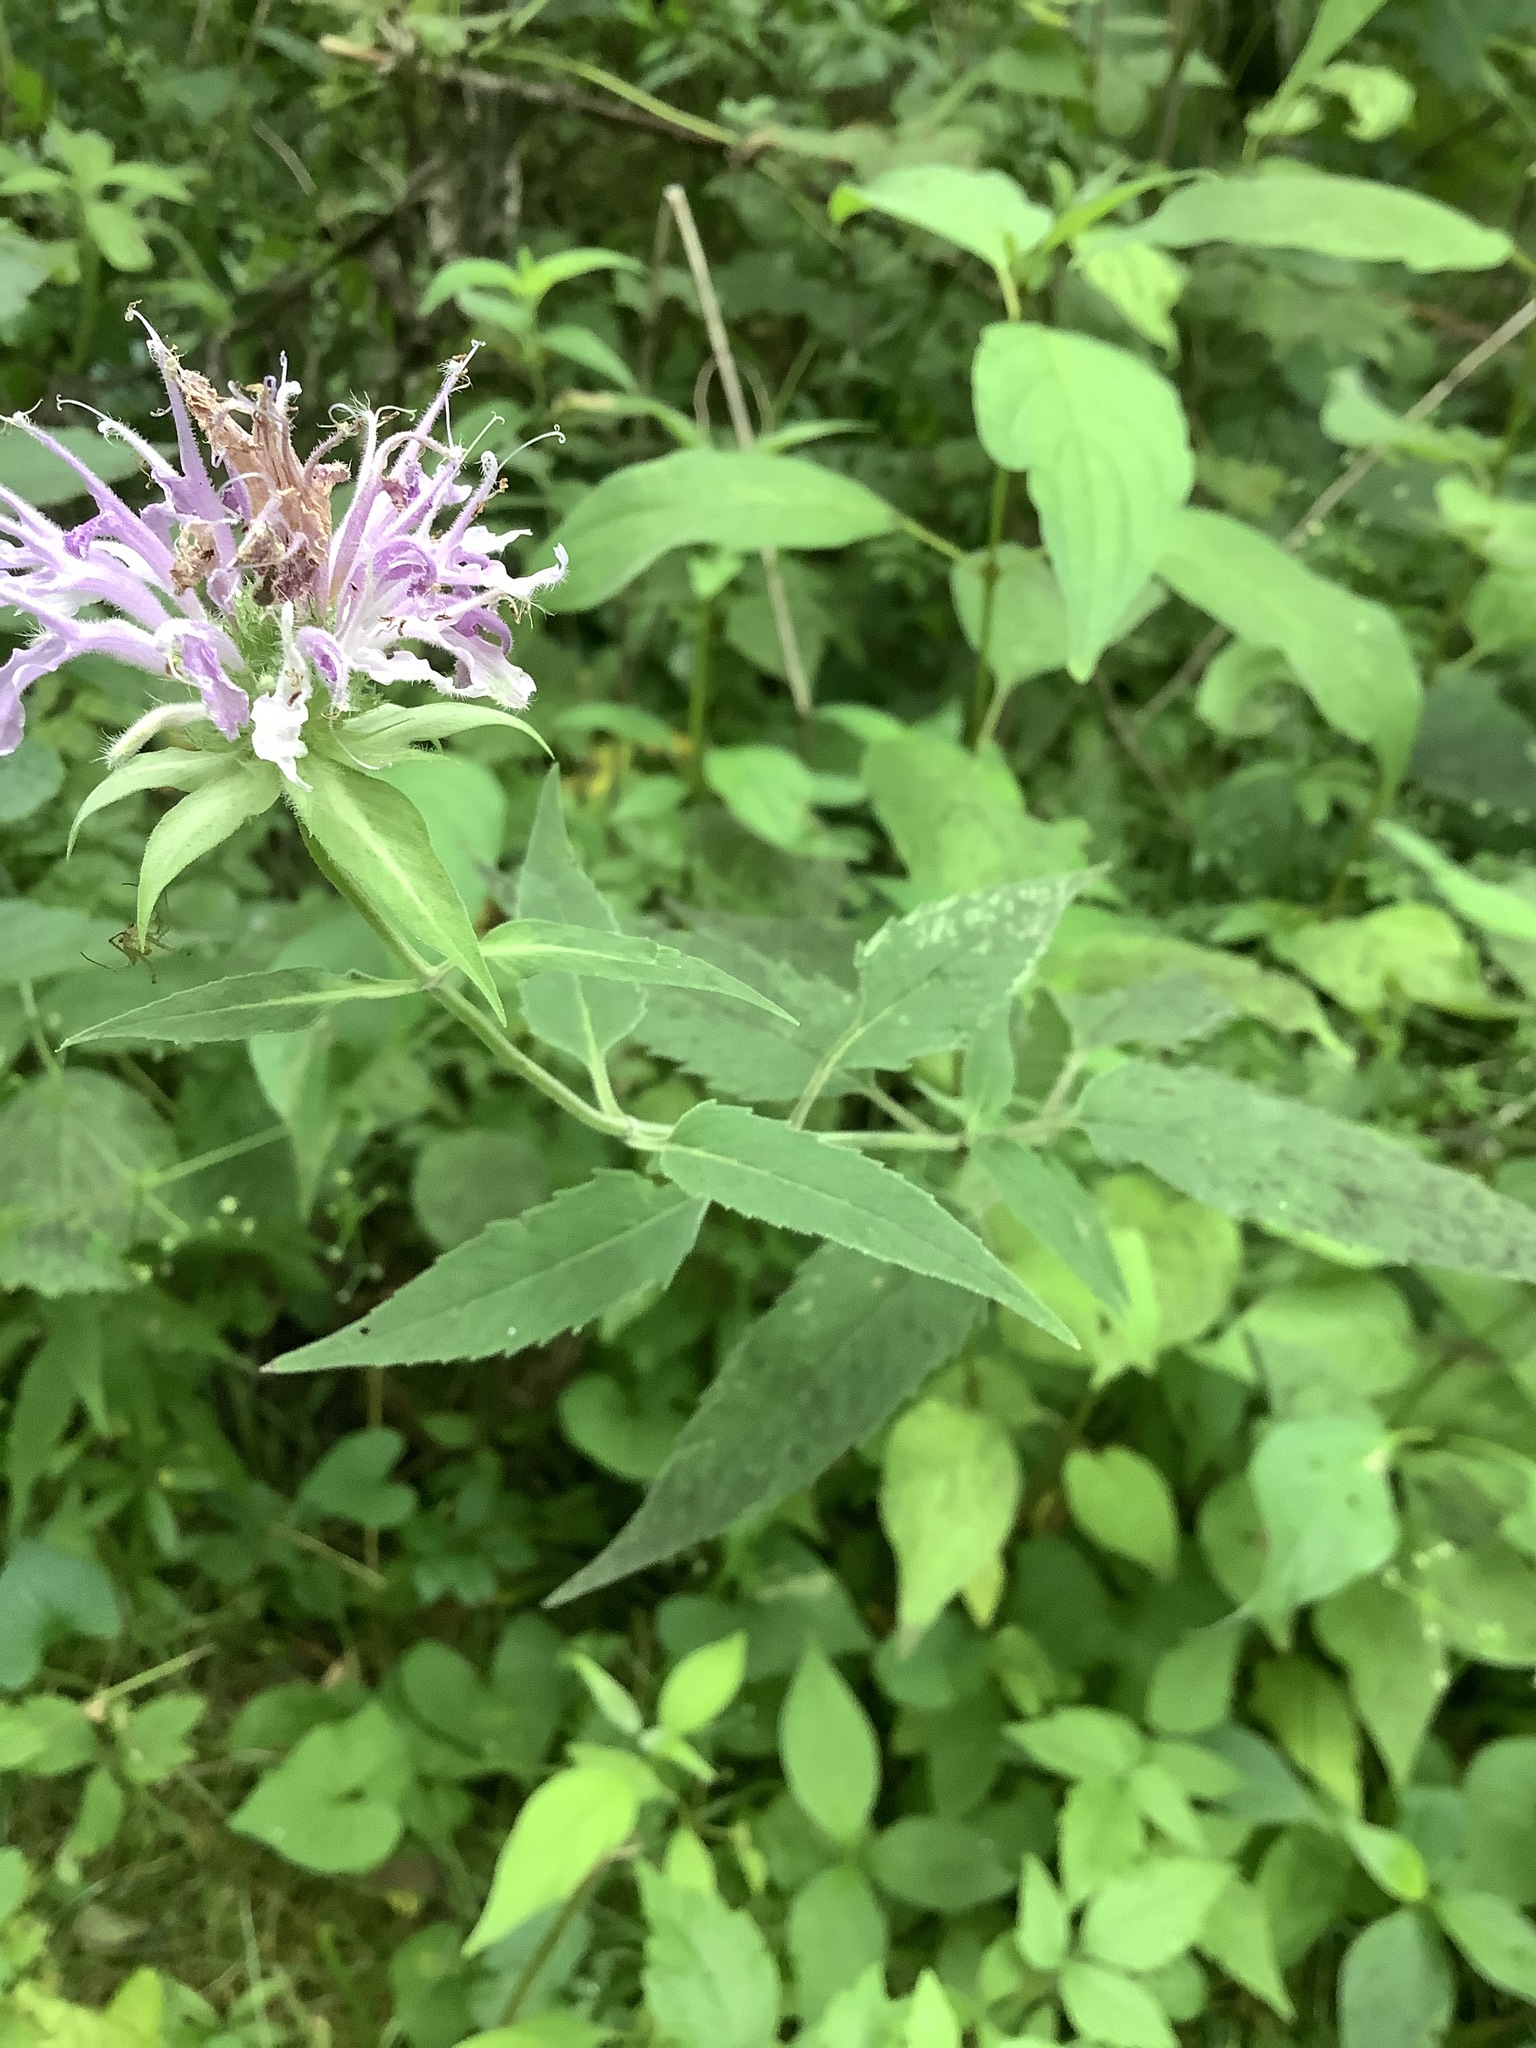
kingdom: Plantae
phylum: Tracheophyta
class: Magnoliopsida
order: Lamiales
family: Lamiaceae
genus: Monarda
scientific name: Monarda fistulosa
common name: Purple beebalm
